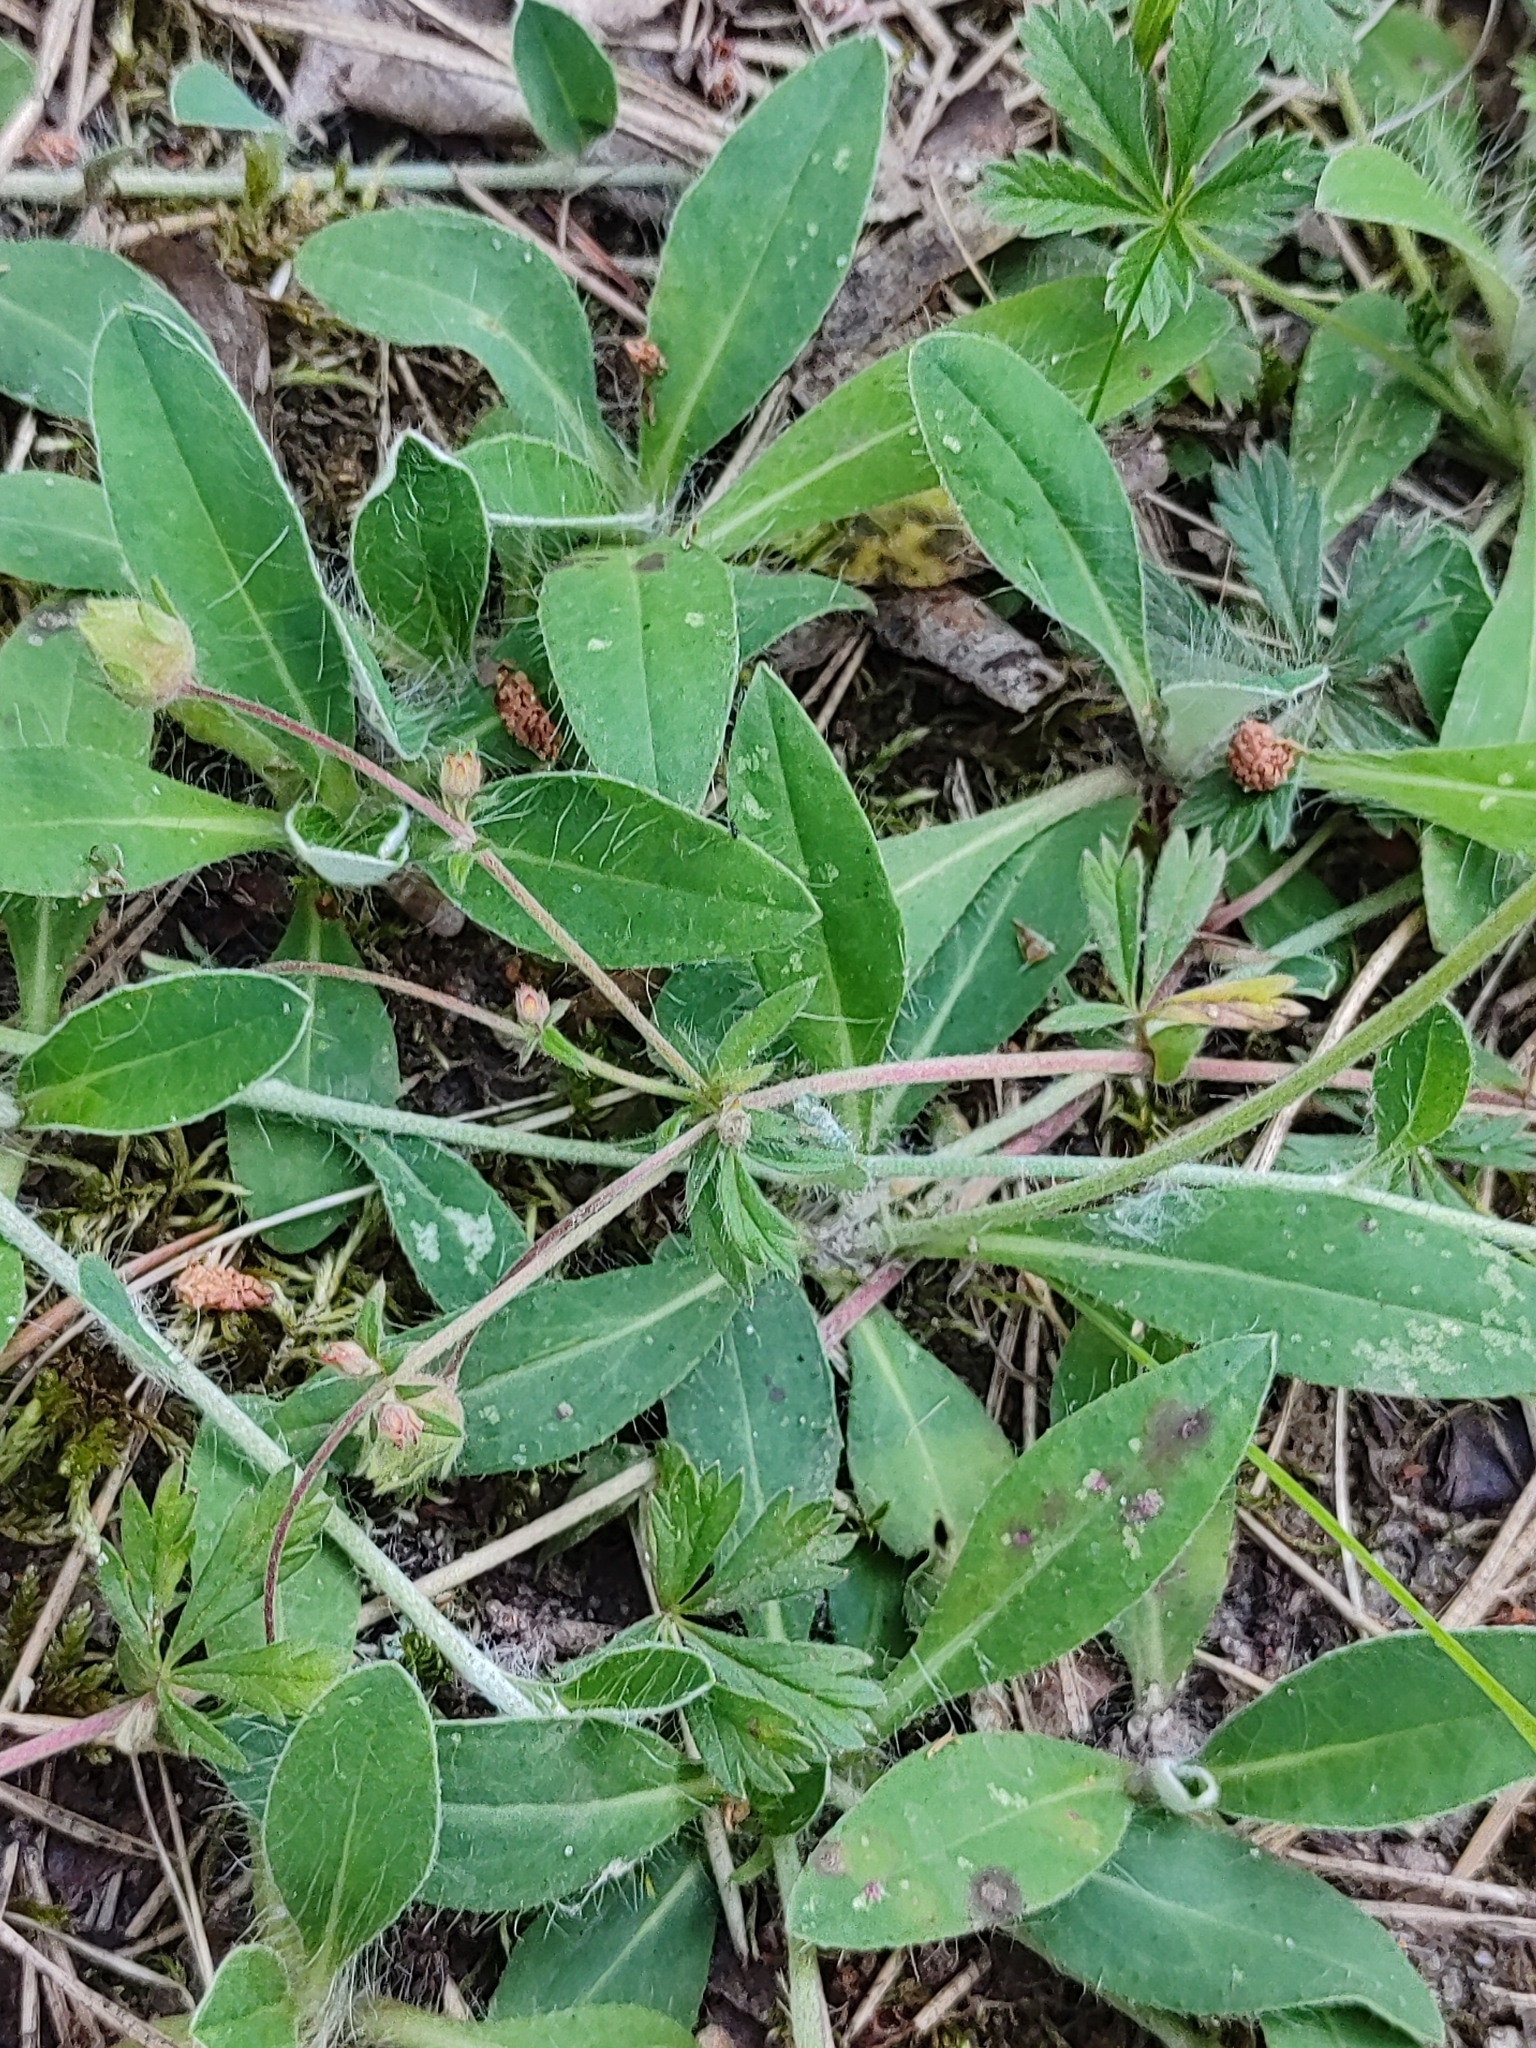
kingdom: Plantae
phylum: Tracheophyta
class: Magnoliopsida
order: Asterales
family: Asteraceae
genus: Pilosella
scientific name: Pilosella officinarum
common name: Mouse-ear hawkweed
